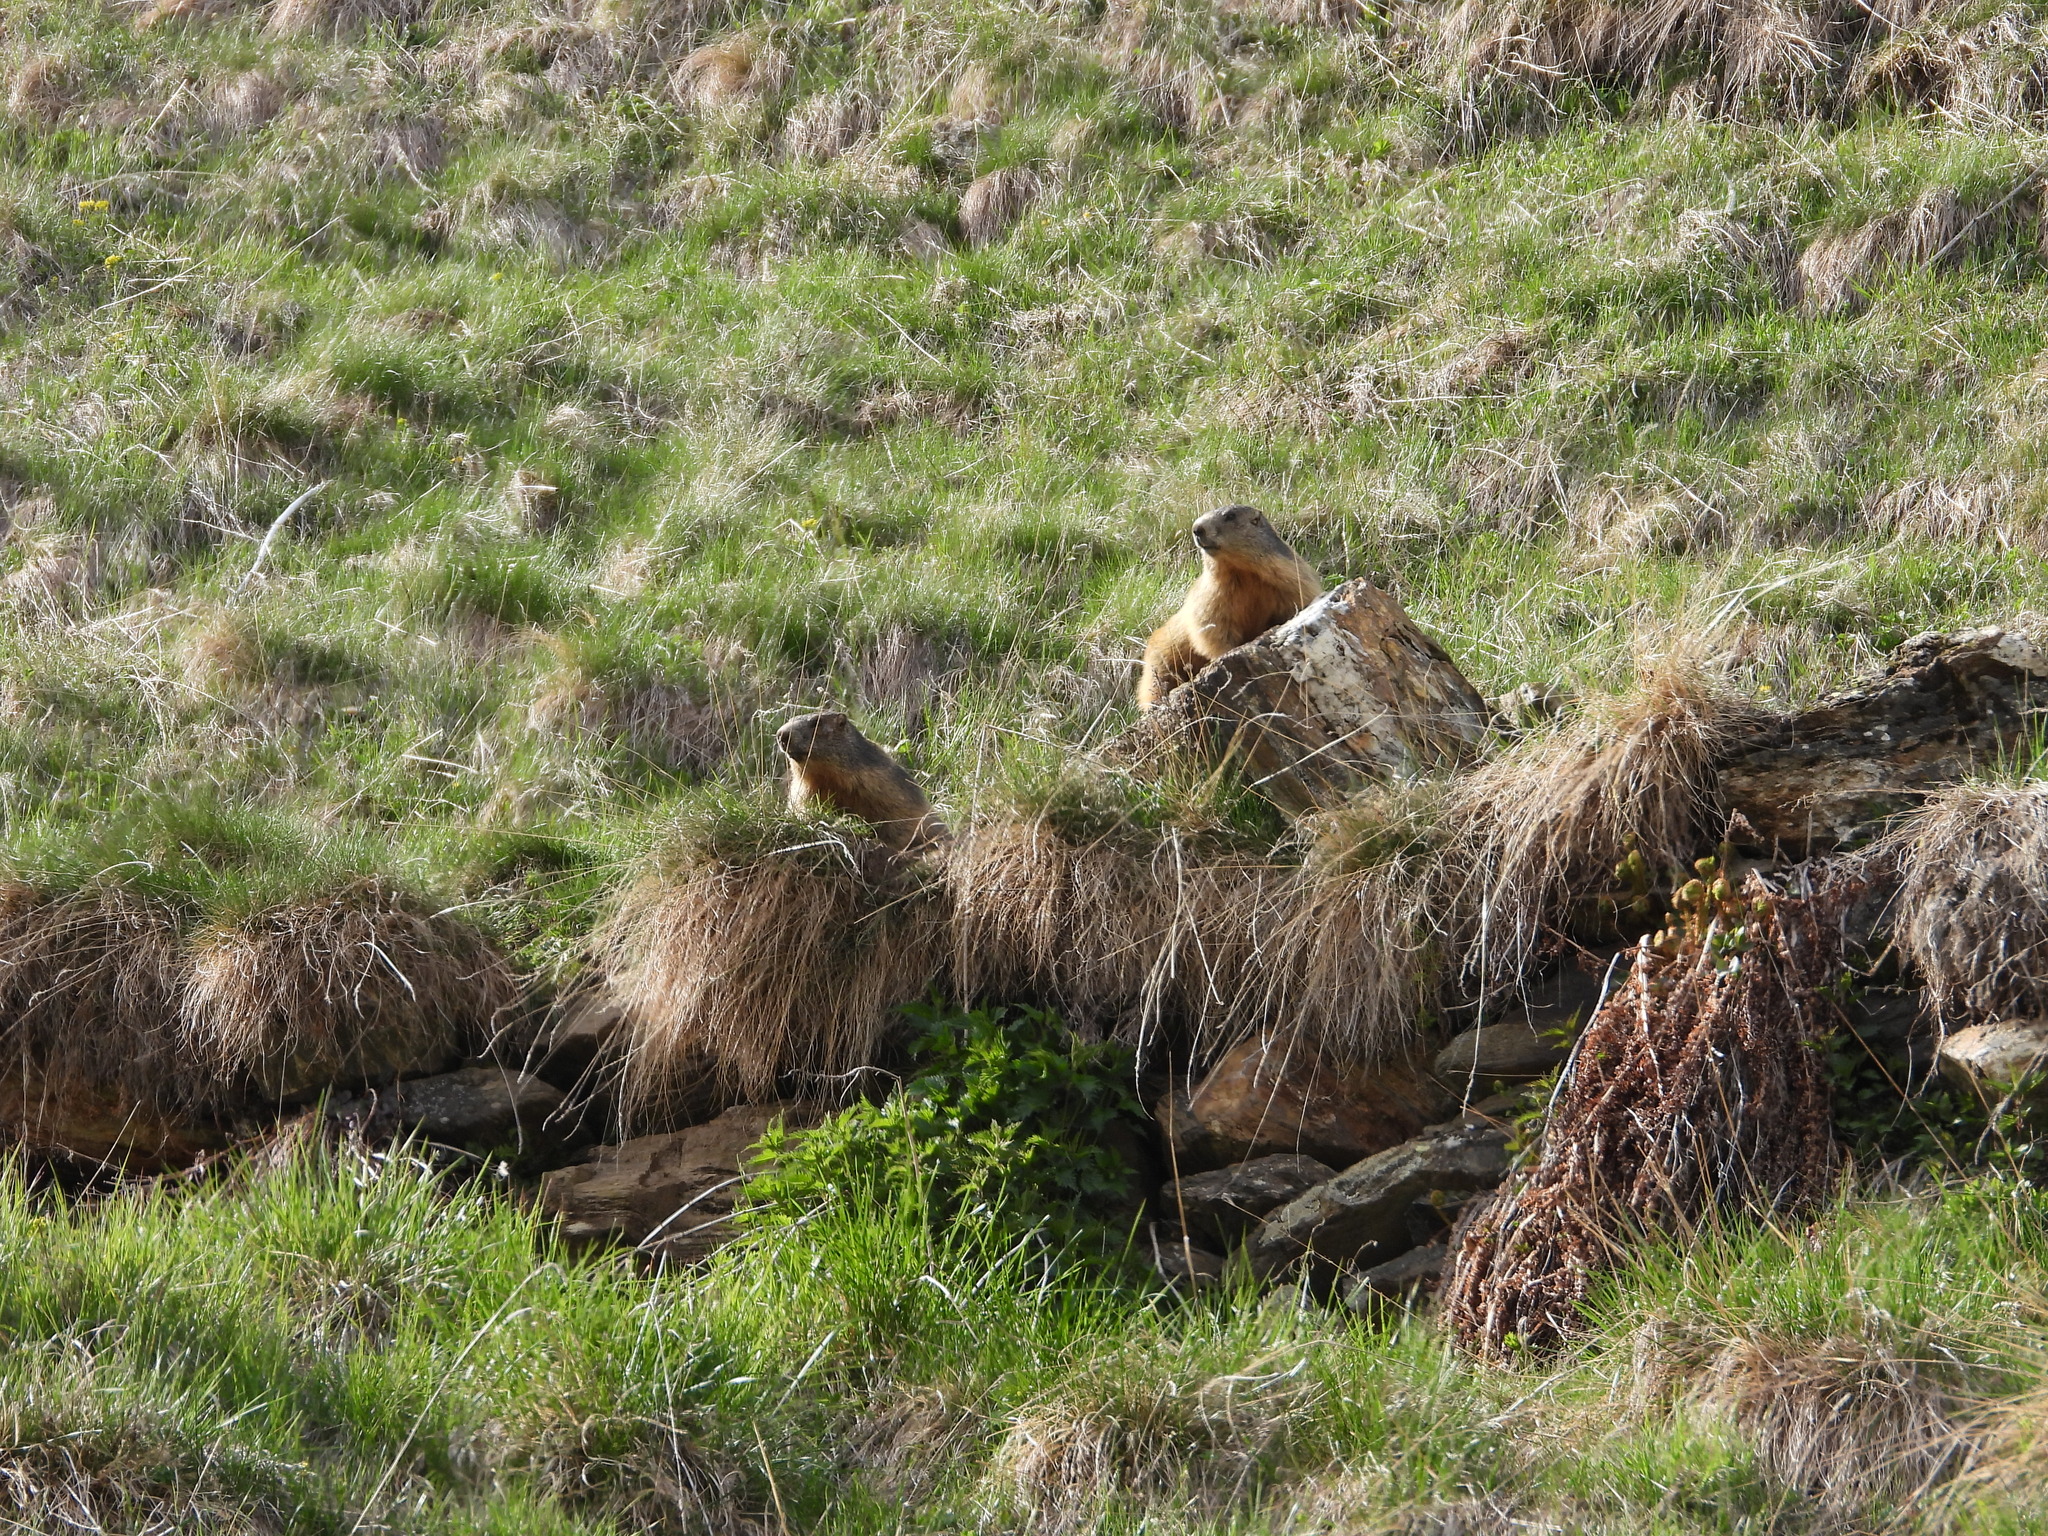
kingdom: Animalia
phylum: Chordata
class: Mammalia
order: Rodentia
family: Sciuridae
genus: Marmota
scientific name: Marmota marmota
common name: Alpine marmot
